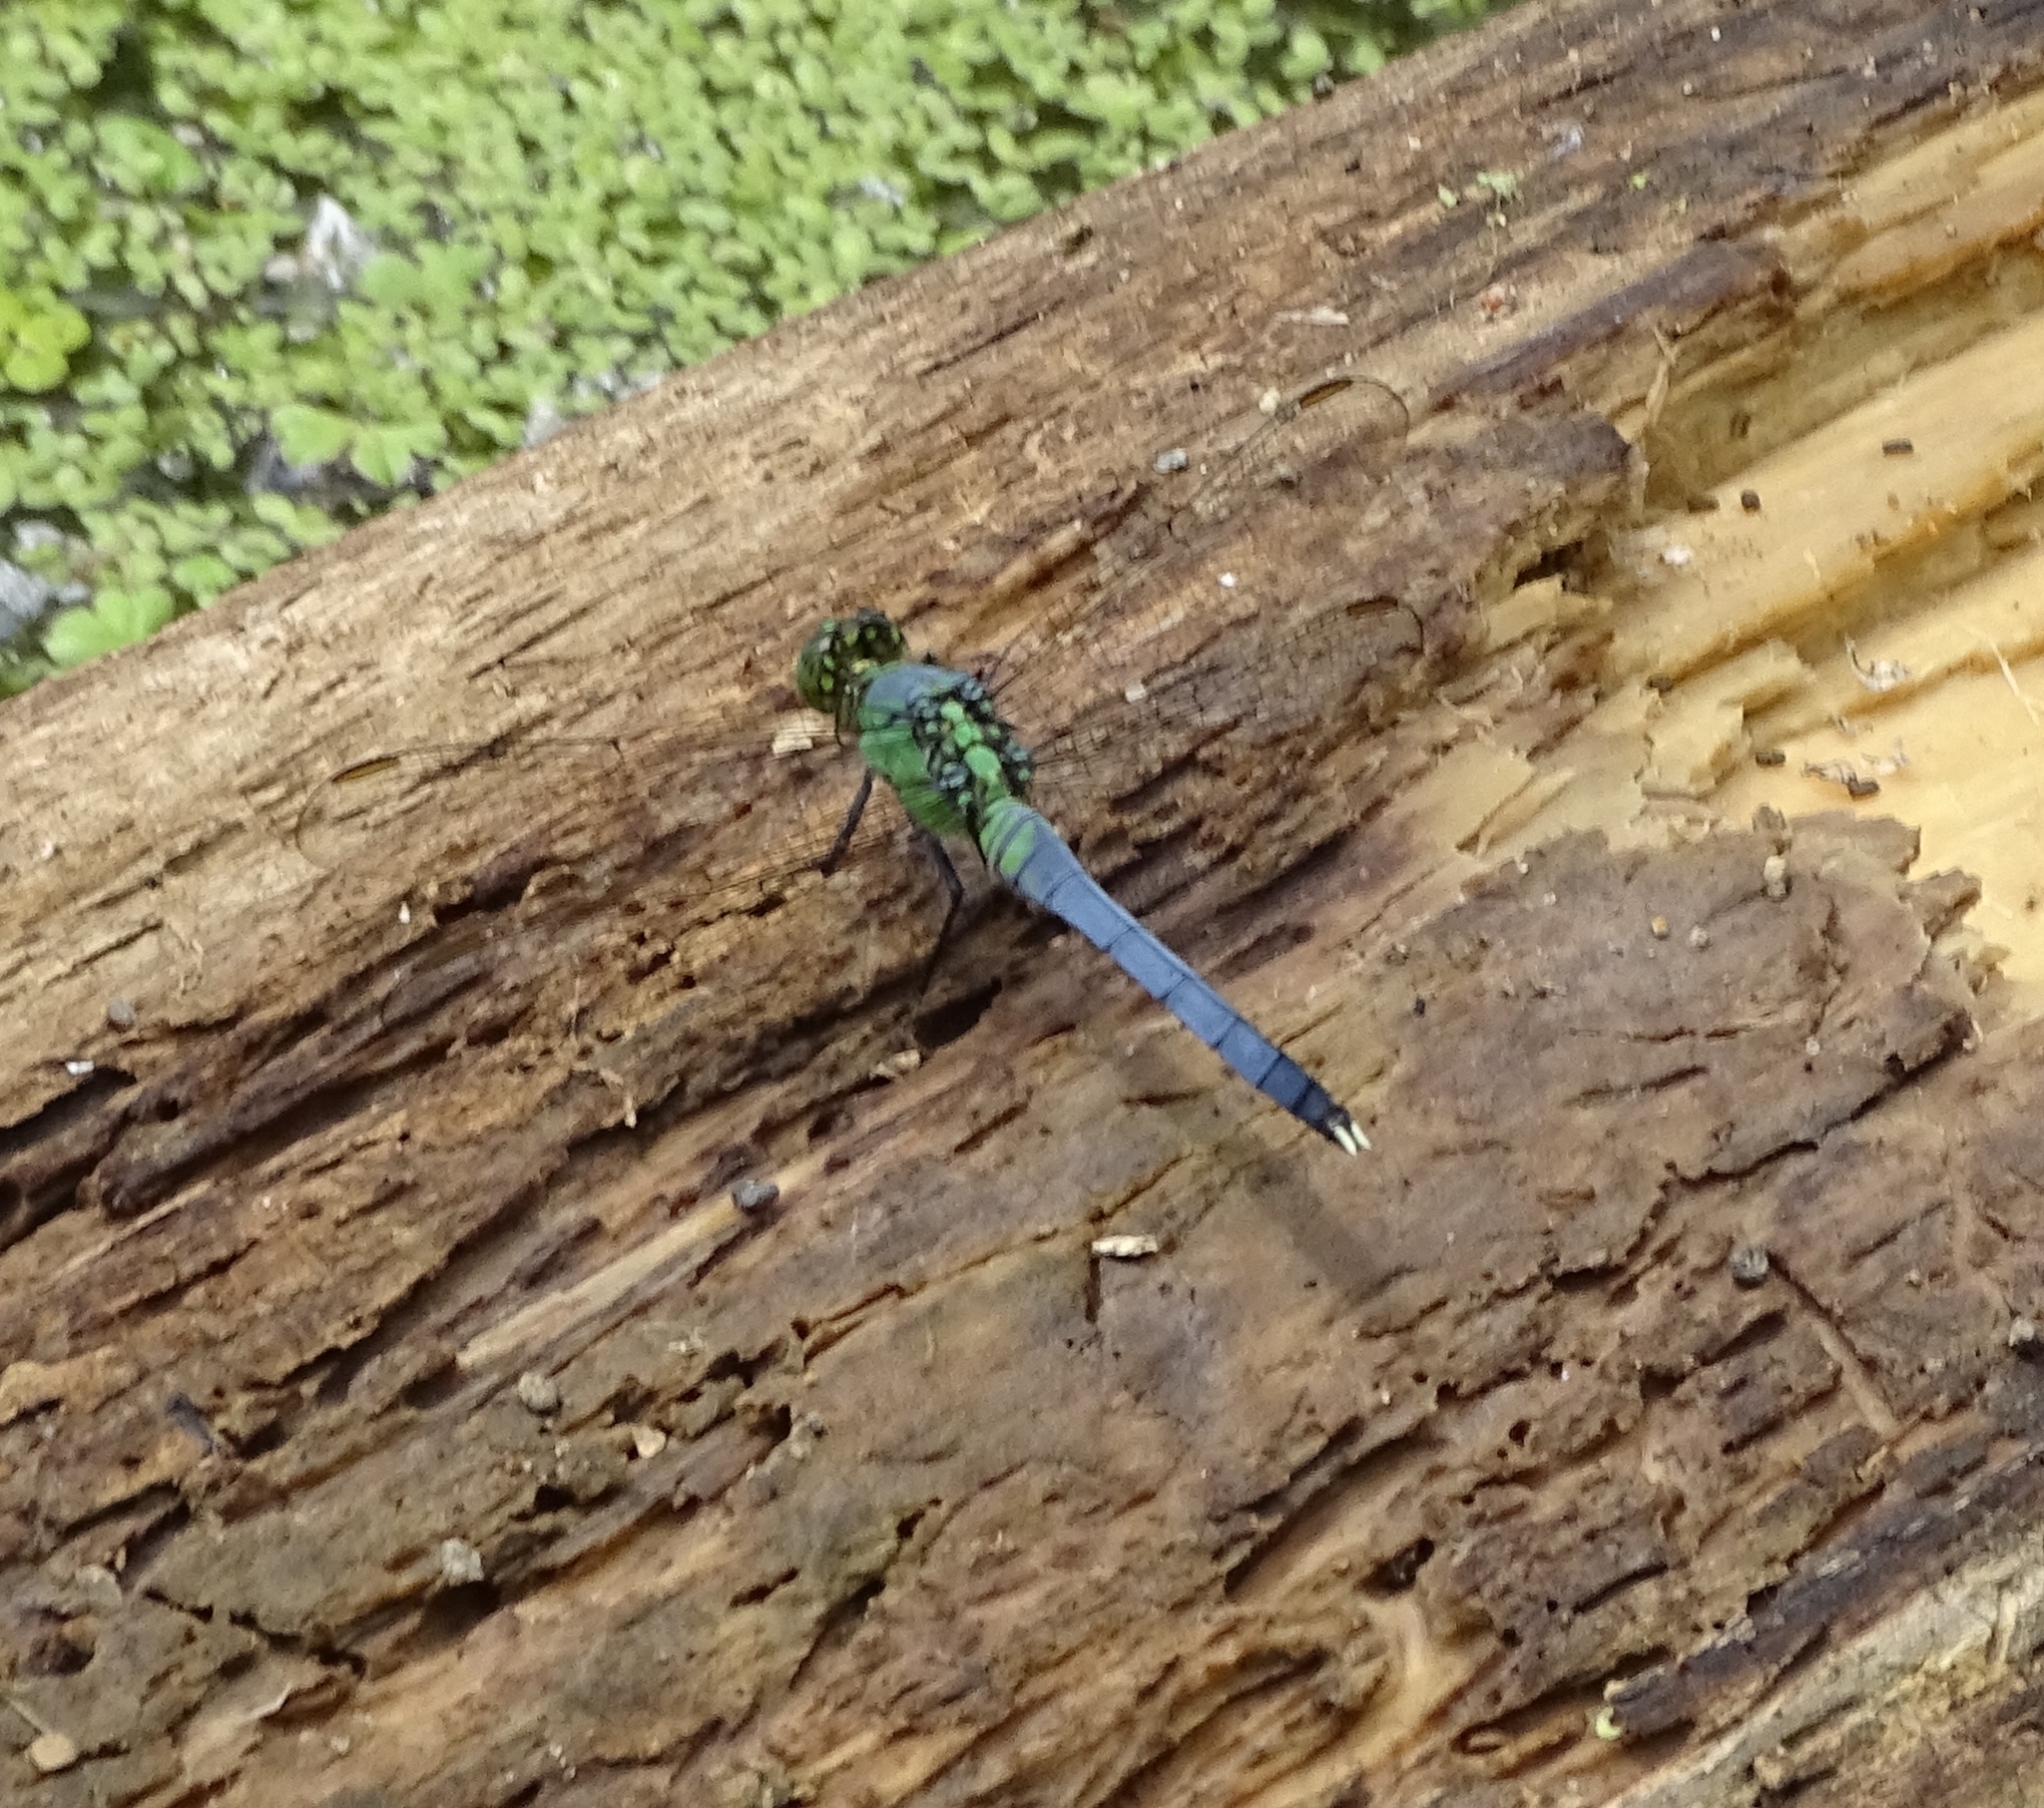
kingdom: Animalia
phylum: Arthropoda
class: Insecta
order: Odonata
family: Libellulidae
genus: Erythemis
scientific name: Erythemis simplicicollis
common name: Eastern pondhawk
